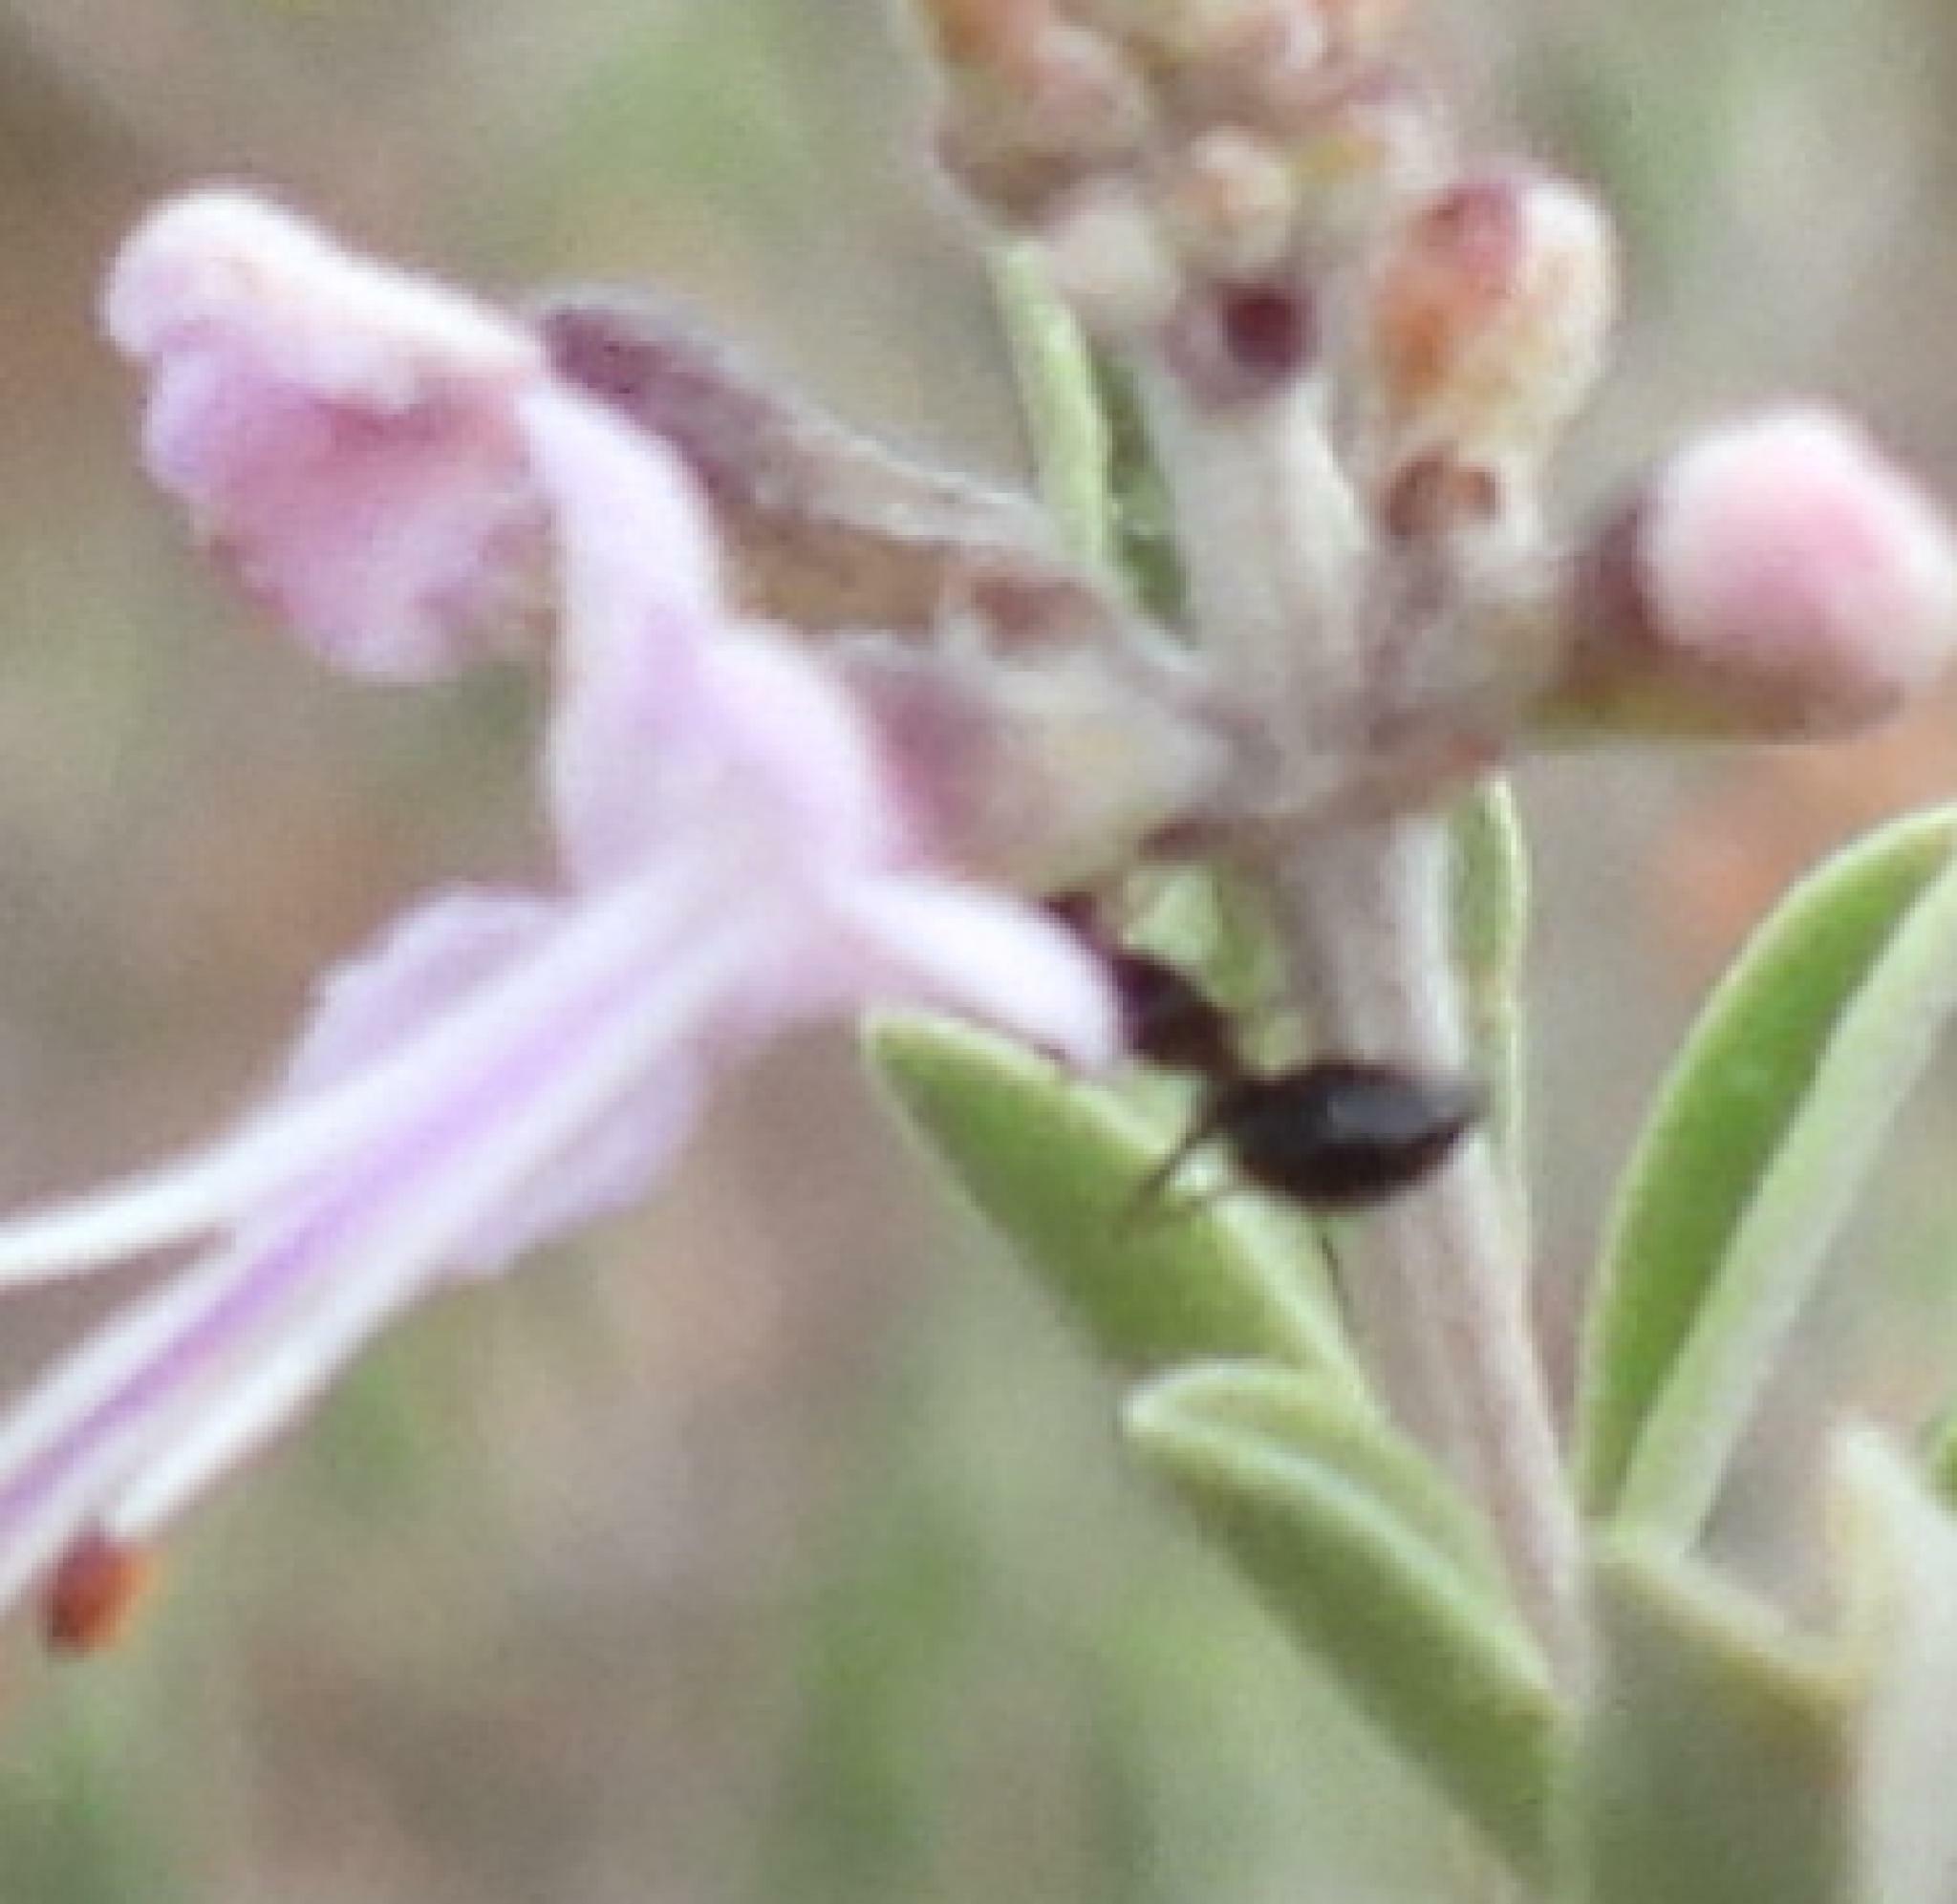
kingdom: Animalia
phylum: Arthropoda
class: Insecta
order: Hymenoptera
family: Formicidae
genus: Anoplolepis
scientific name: Anoplolepis steingroeveri
